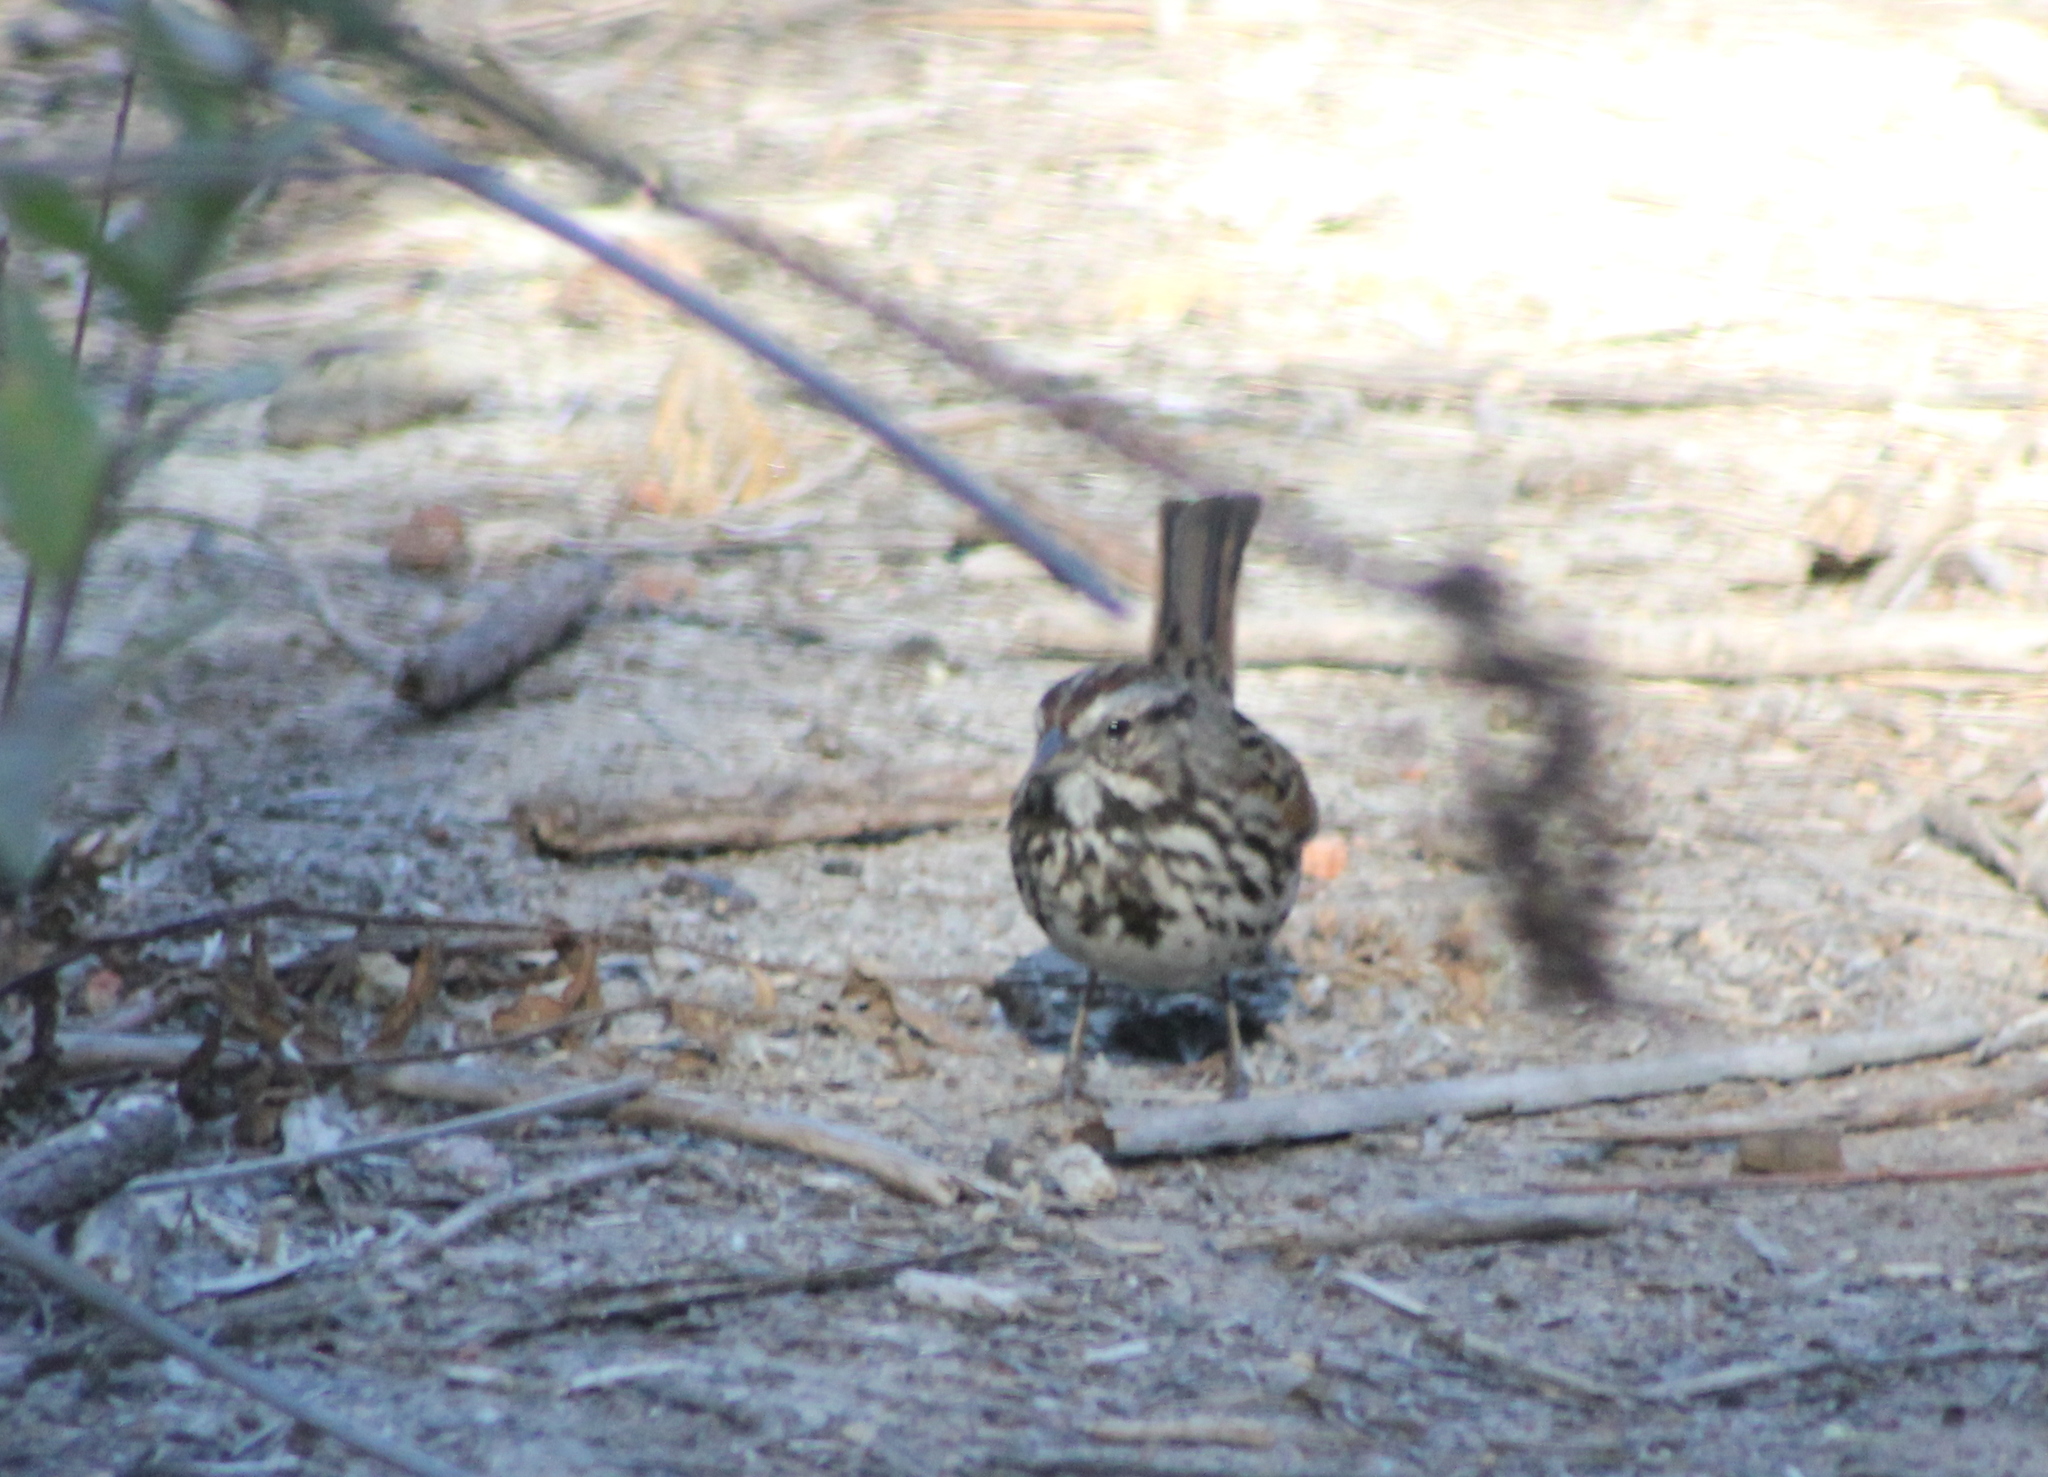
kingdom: Animalia
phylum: Chordata
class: Aves
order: Passeriformes
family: Passerellidae
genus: Melospiza
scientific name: Melospiza melodia
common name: Song sparrow
